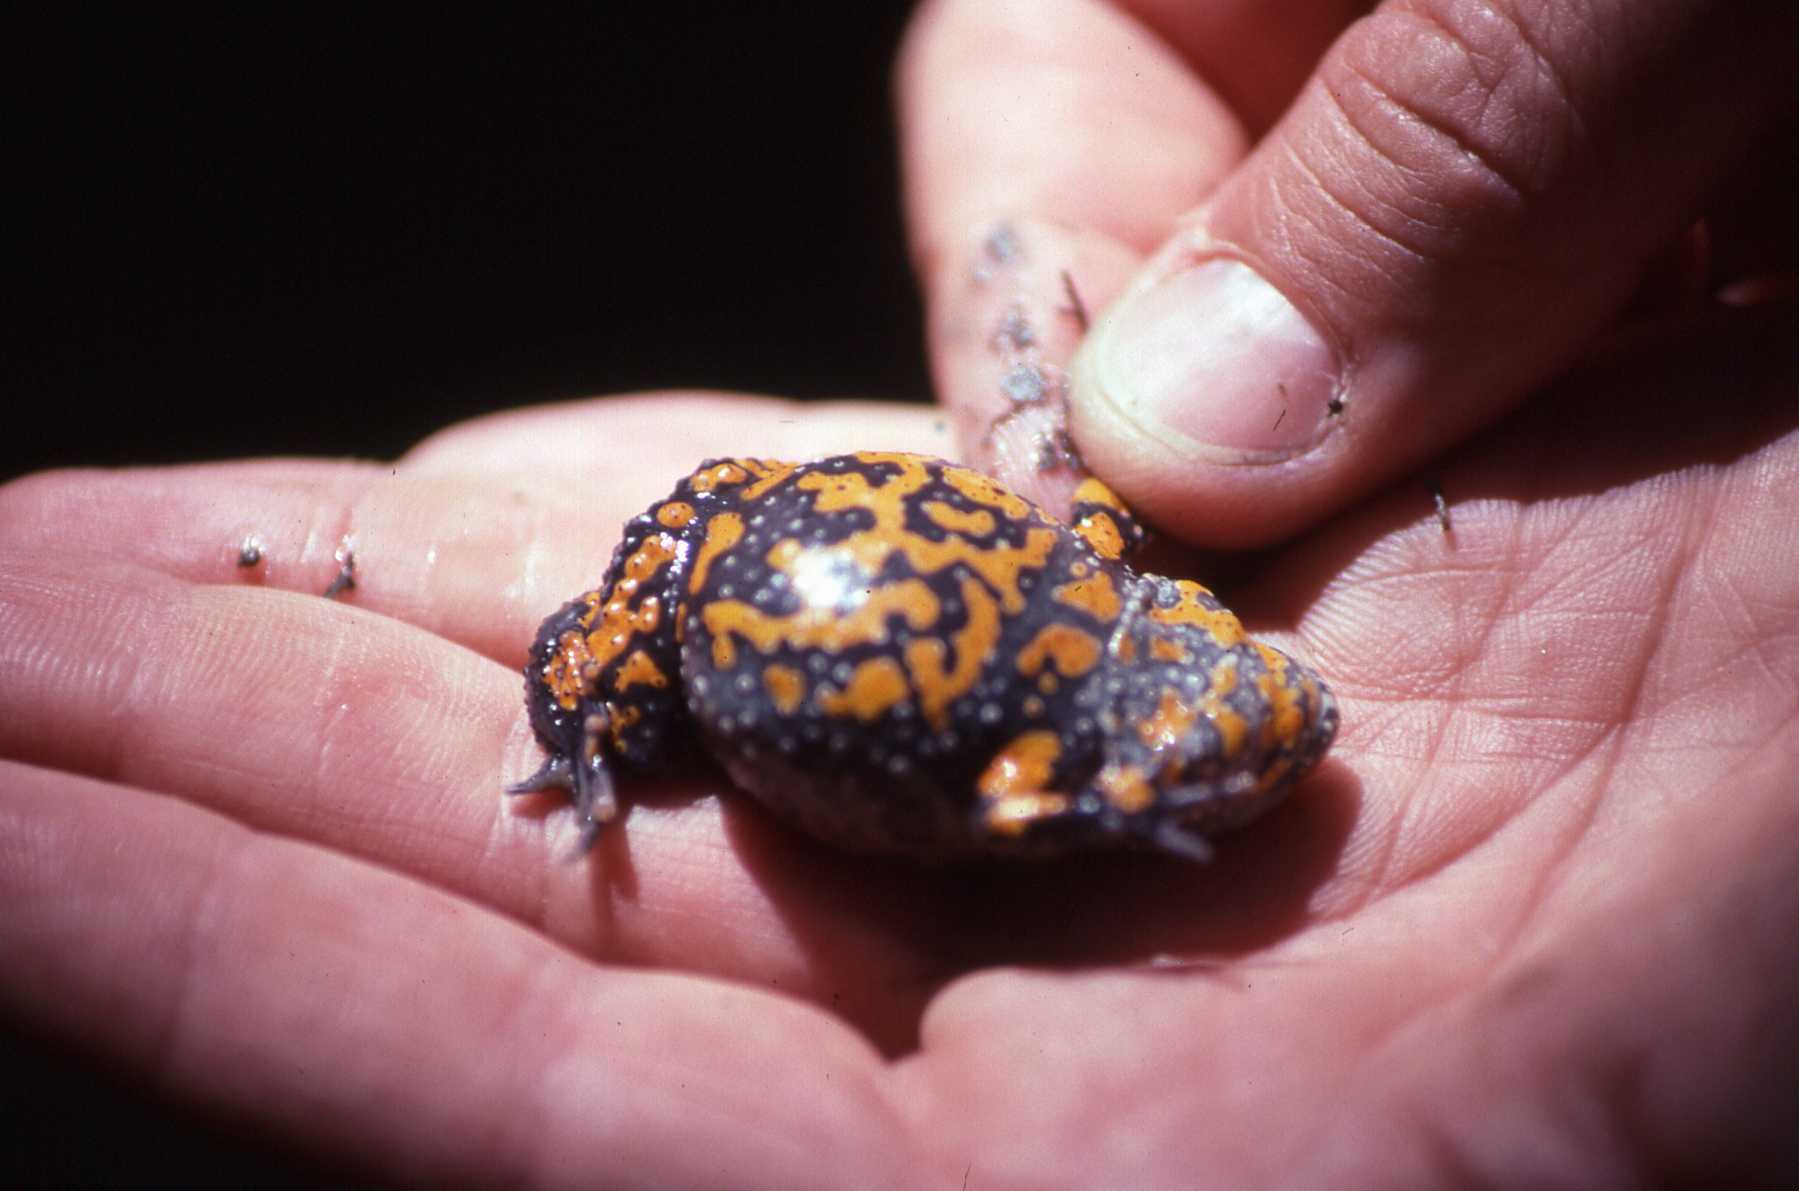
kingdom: Animalia
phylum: Chordata
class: Amphibia
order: Anura
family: Bombinatoridae
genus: Bombina
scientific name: Bombina bombina
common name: Fire-bellied toad
